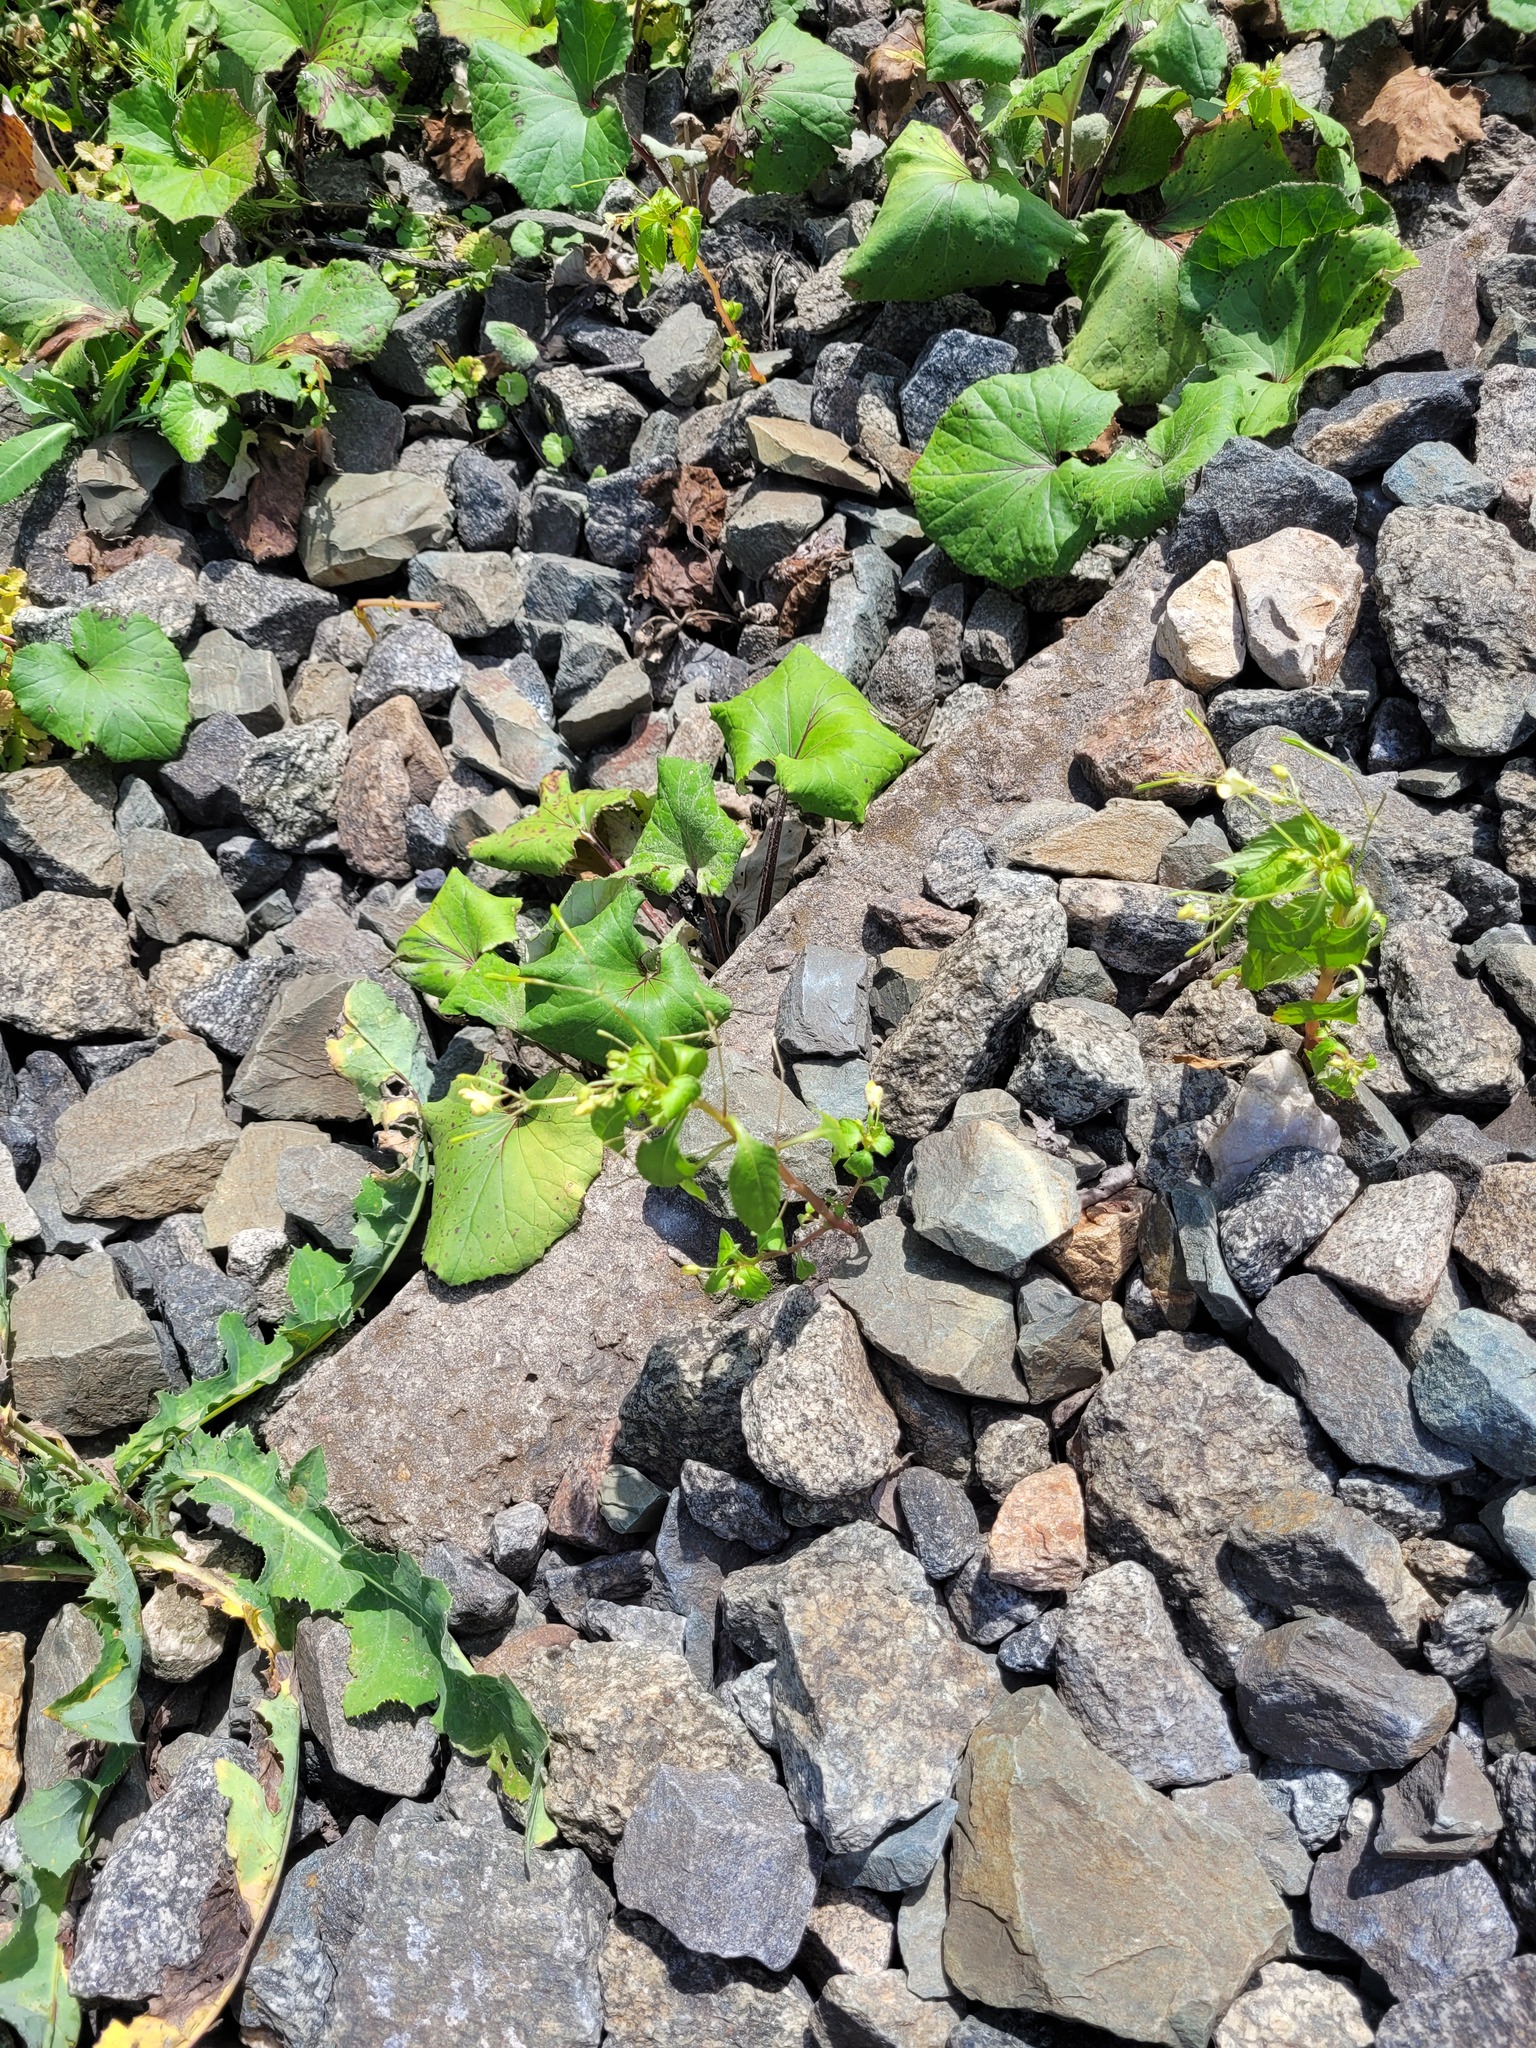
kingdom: Plantae
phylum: Tracheophyta
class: Magnoliopsida
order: Ericales
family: Balsaminaceae
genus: Impatiens
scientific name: Impatiens parviflora
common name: Small balsam
